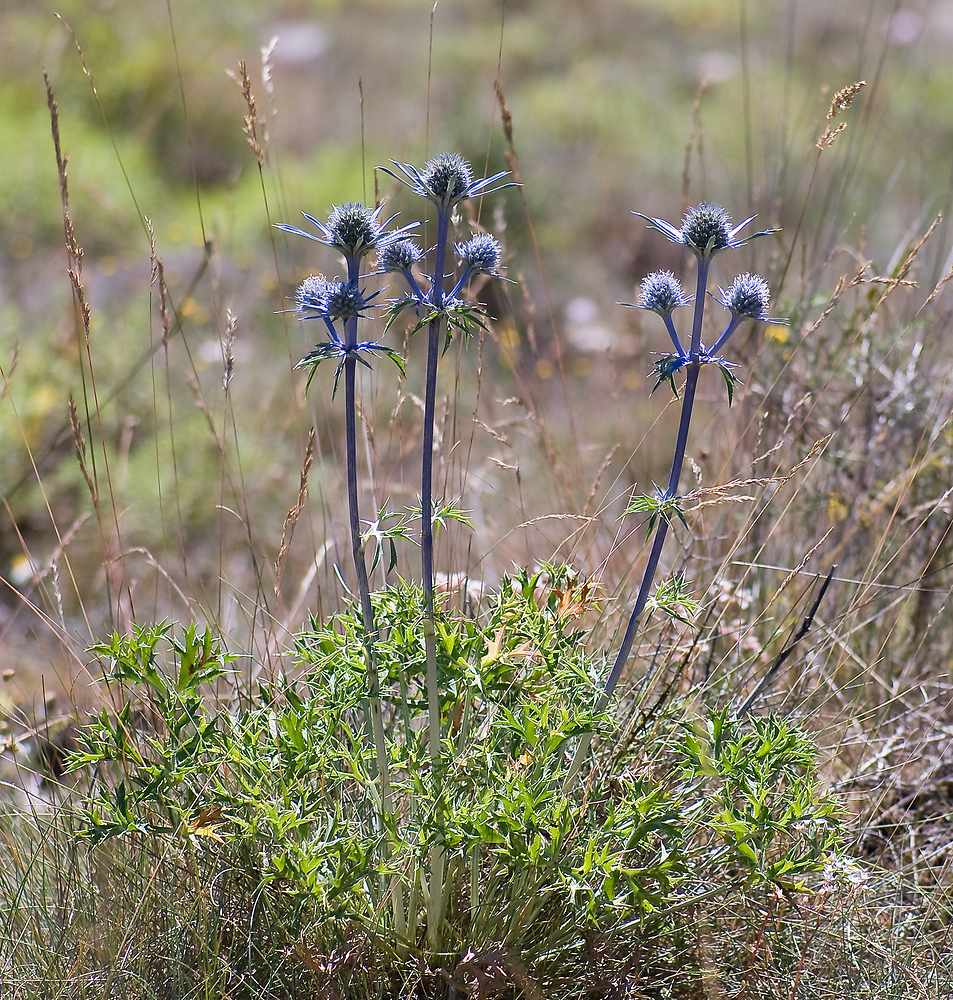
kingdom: Plantae
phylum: Tracheophyta
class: Magnoliopsida
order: Apiales
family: Apiaceae
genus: Eryngium
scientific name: Eryngium bourgatii
